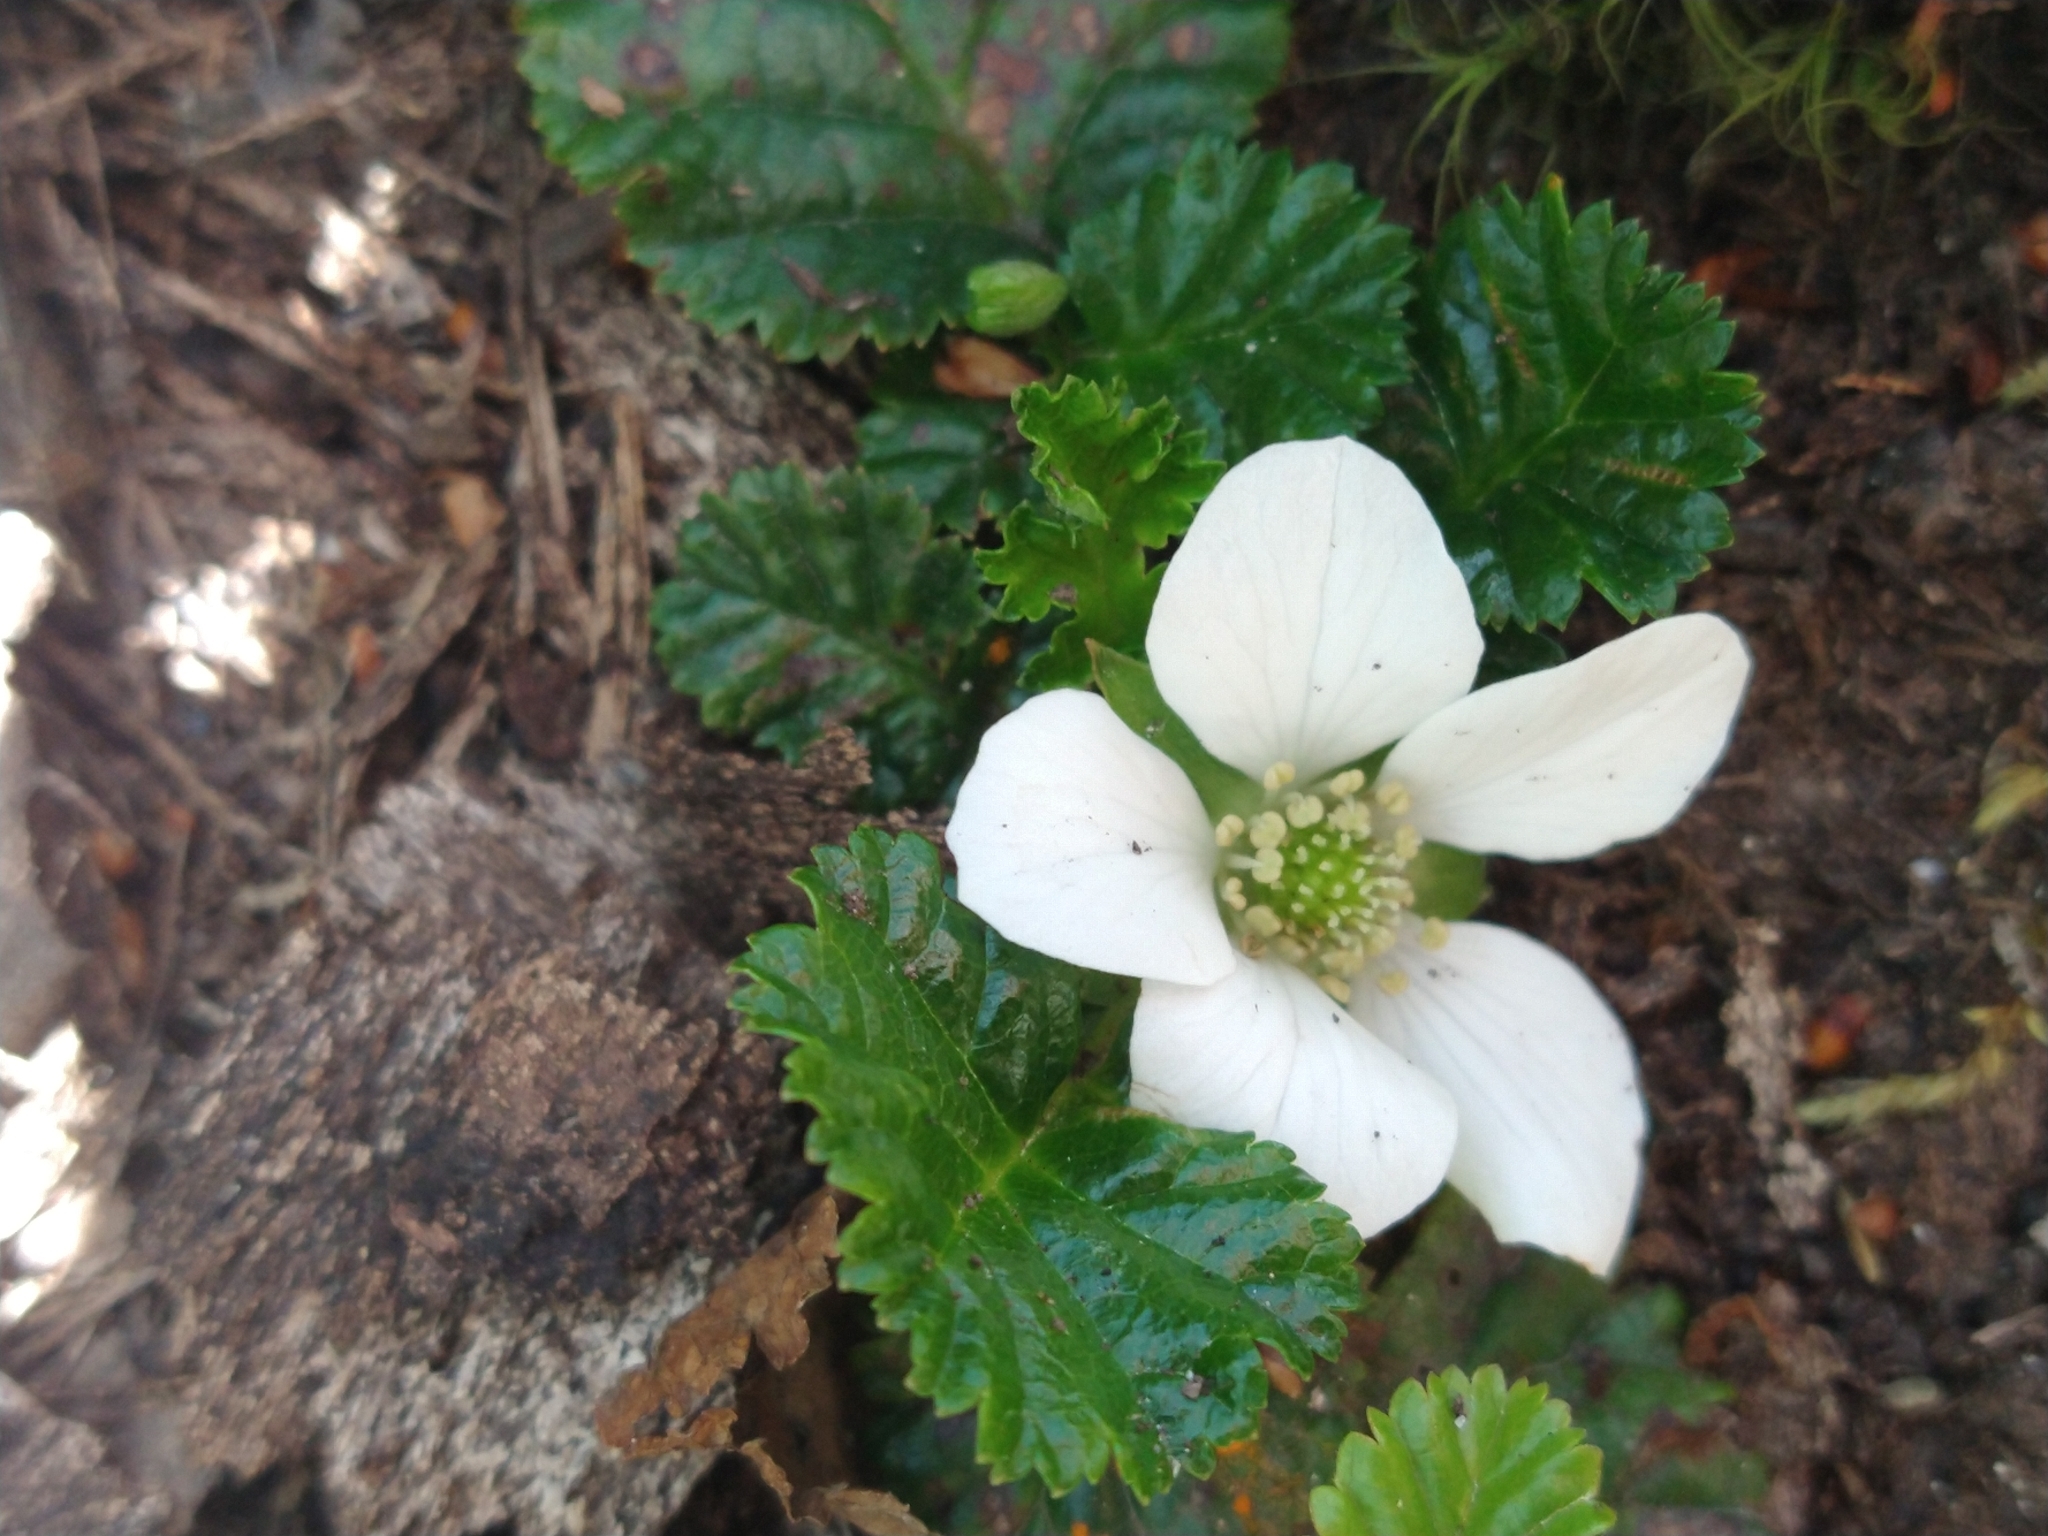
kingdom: Plantae
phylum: Tracheophyta
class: Magnoliopsida
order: Rosales
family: Rosaceae
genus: Rubus
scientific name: Rubus geoides
